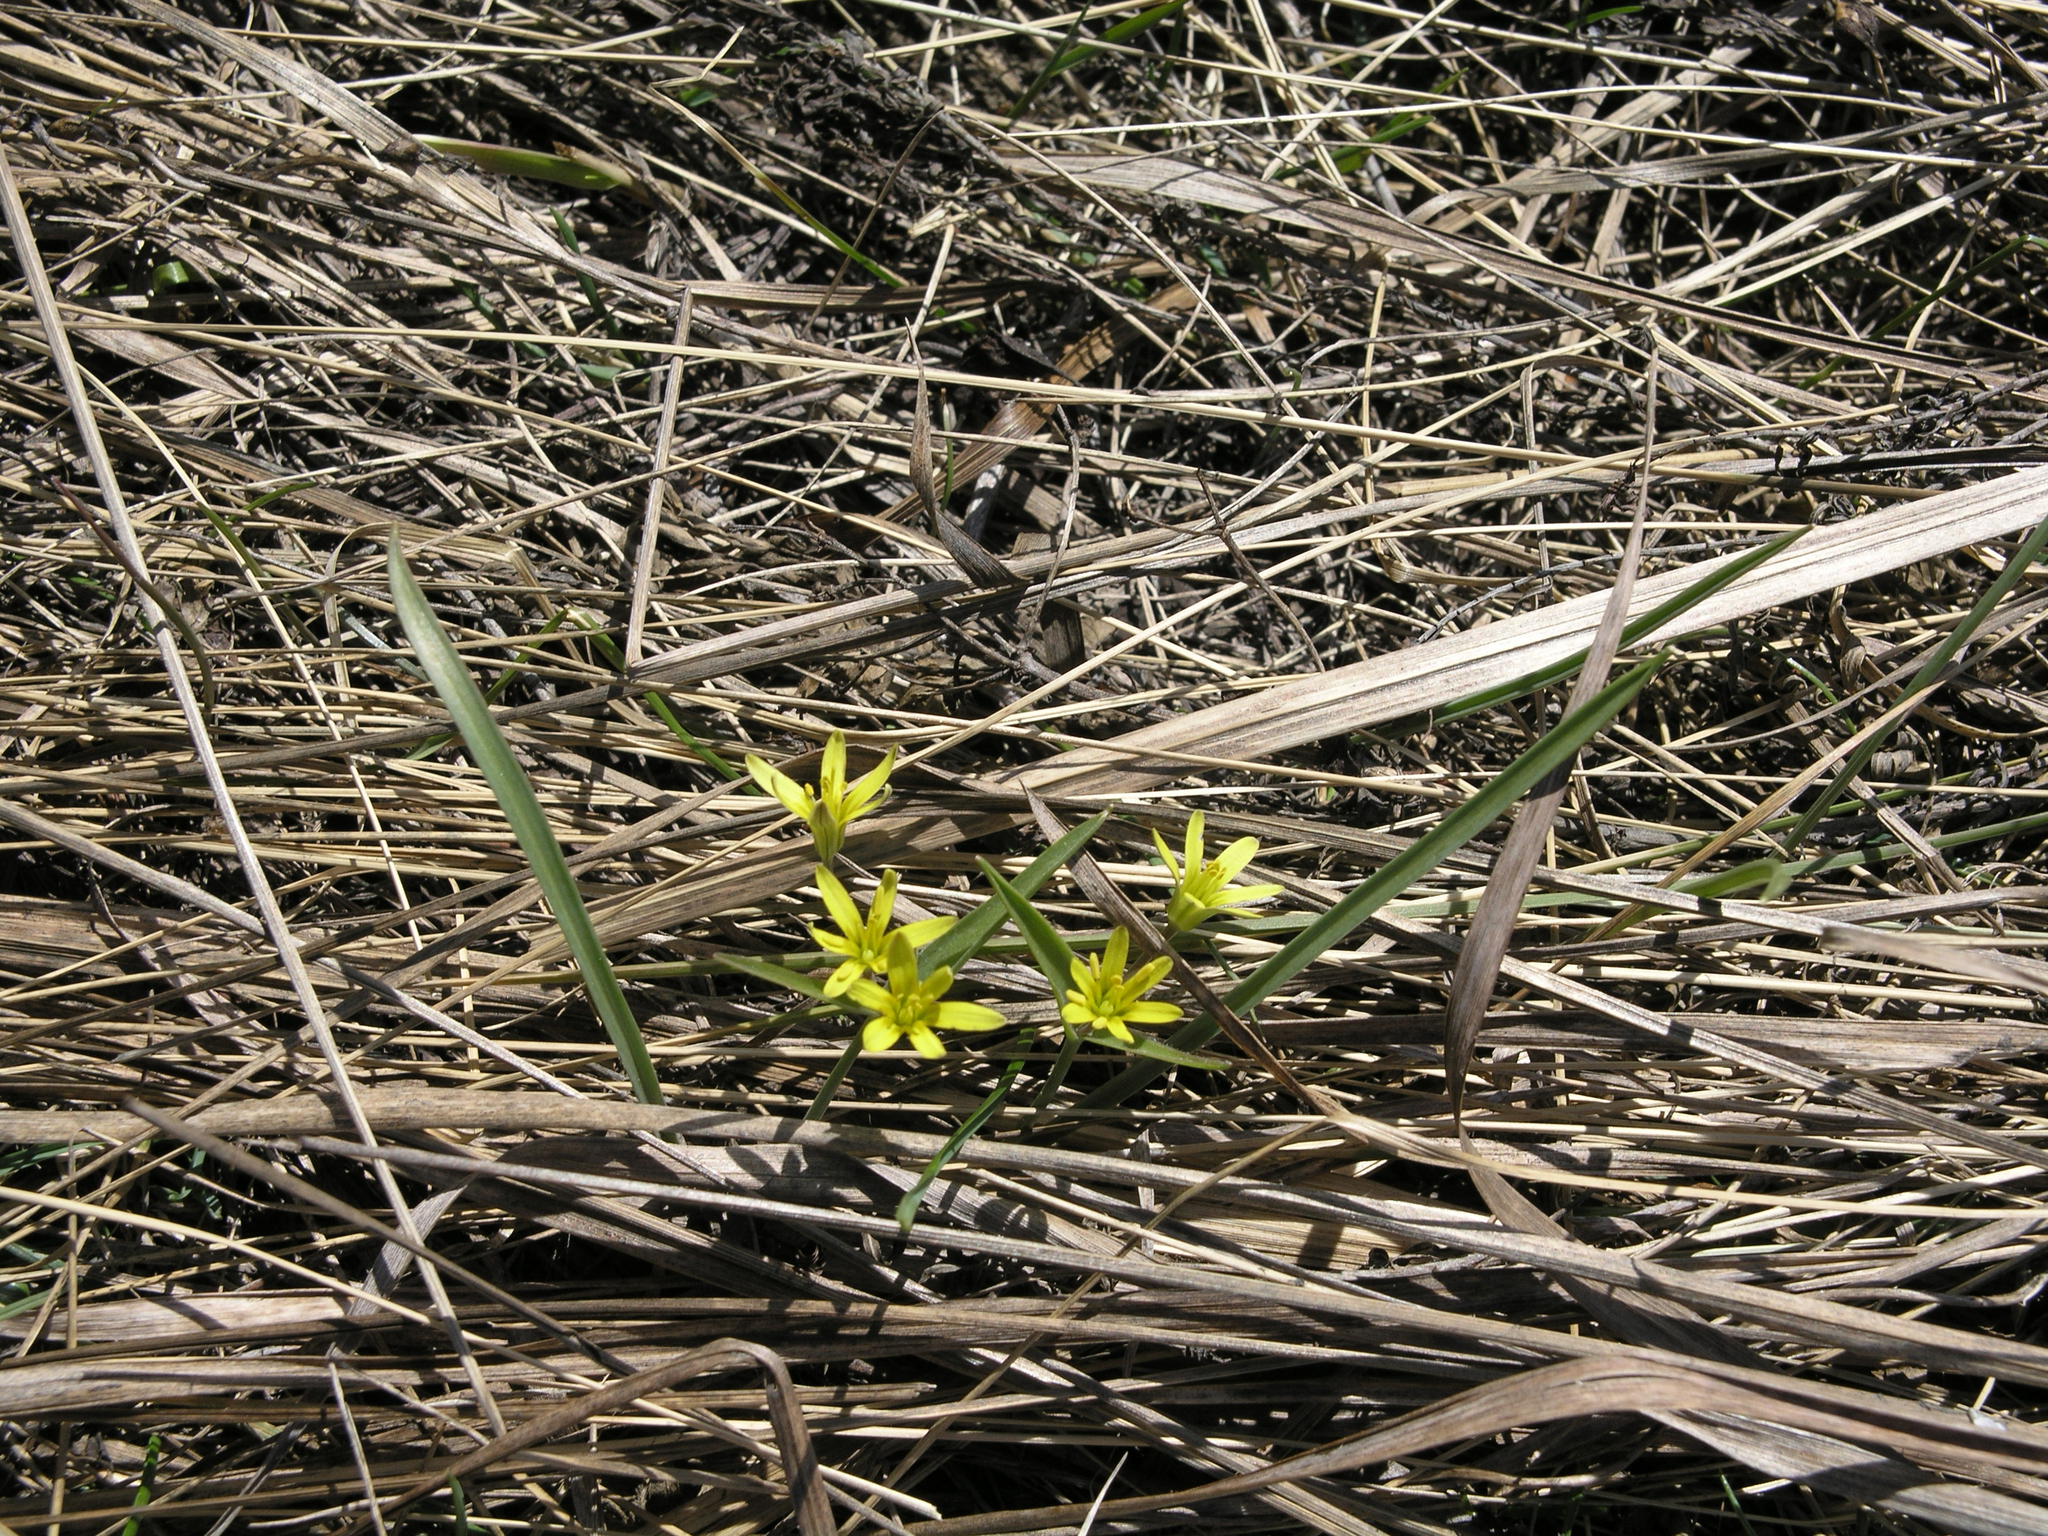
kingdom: Plantae
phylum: Tracheophyta
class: Liliopsida
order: Liliales
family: Liliaceae
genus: Gagea
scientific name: Gagea fedtschenkoana
